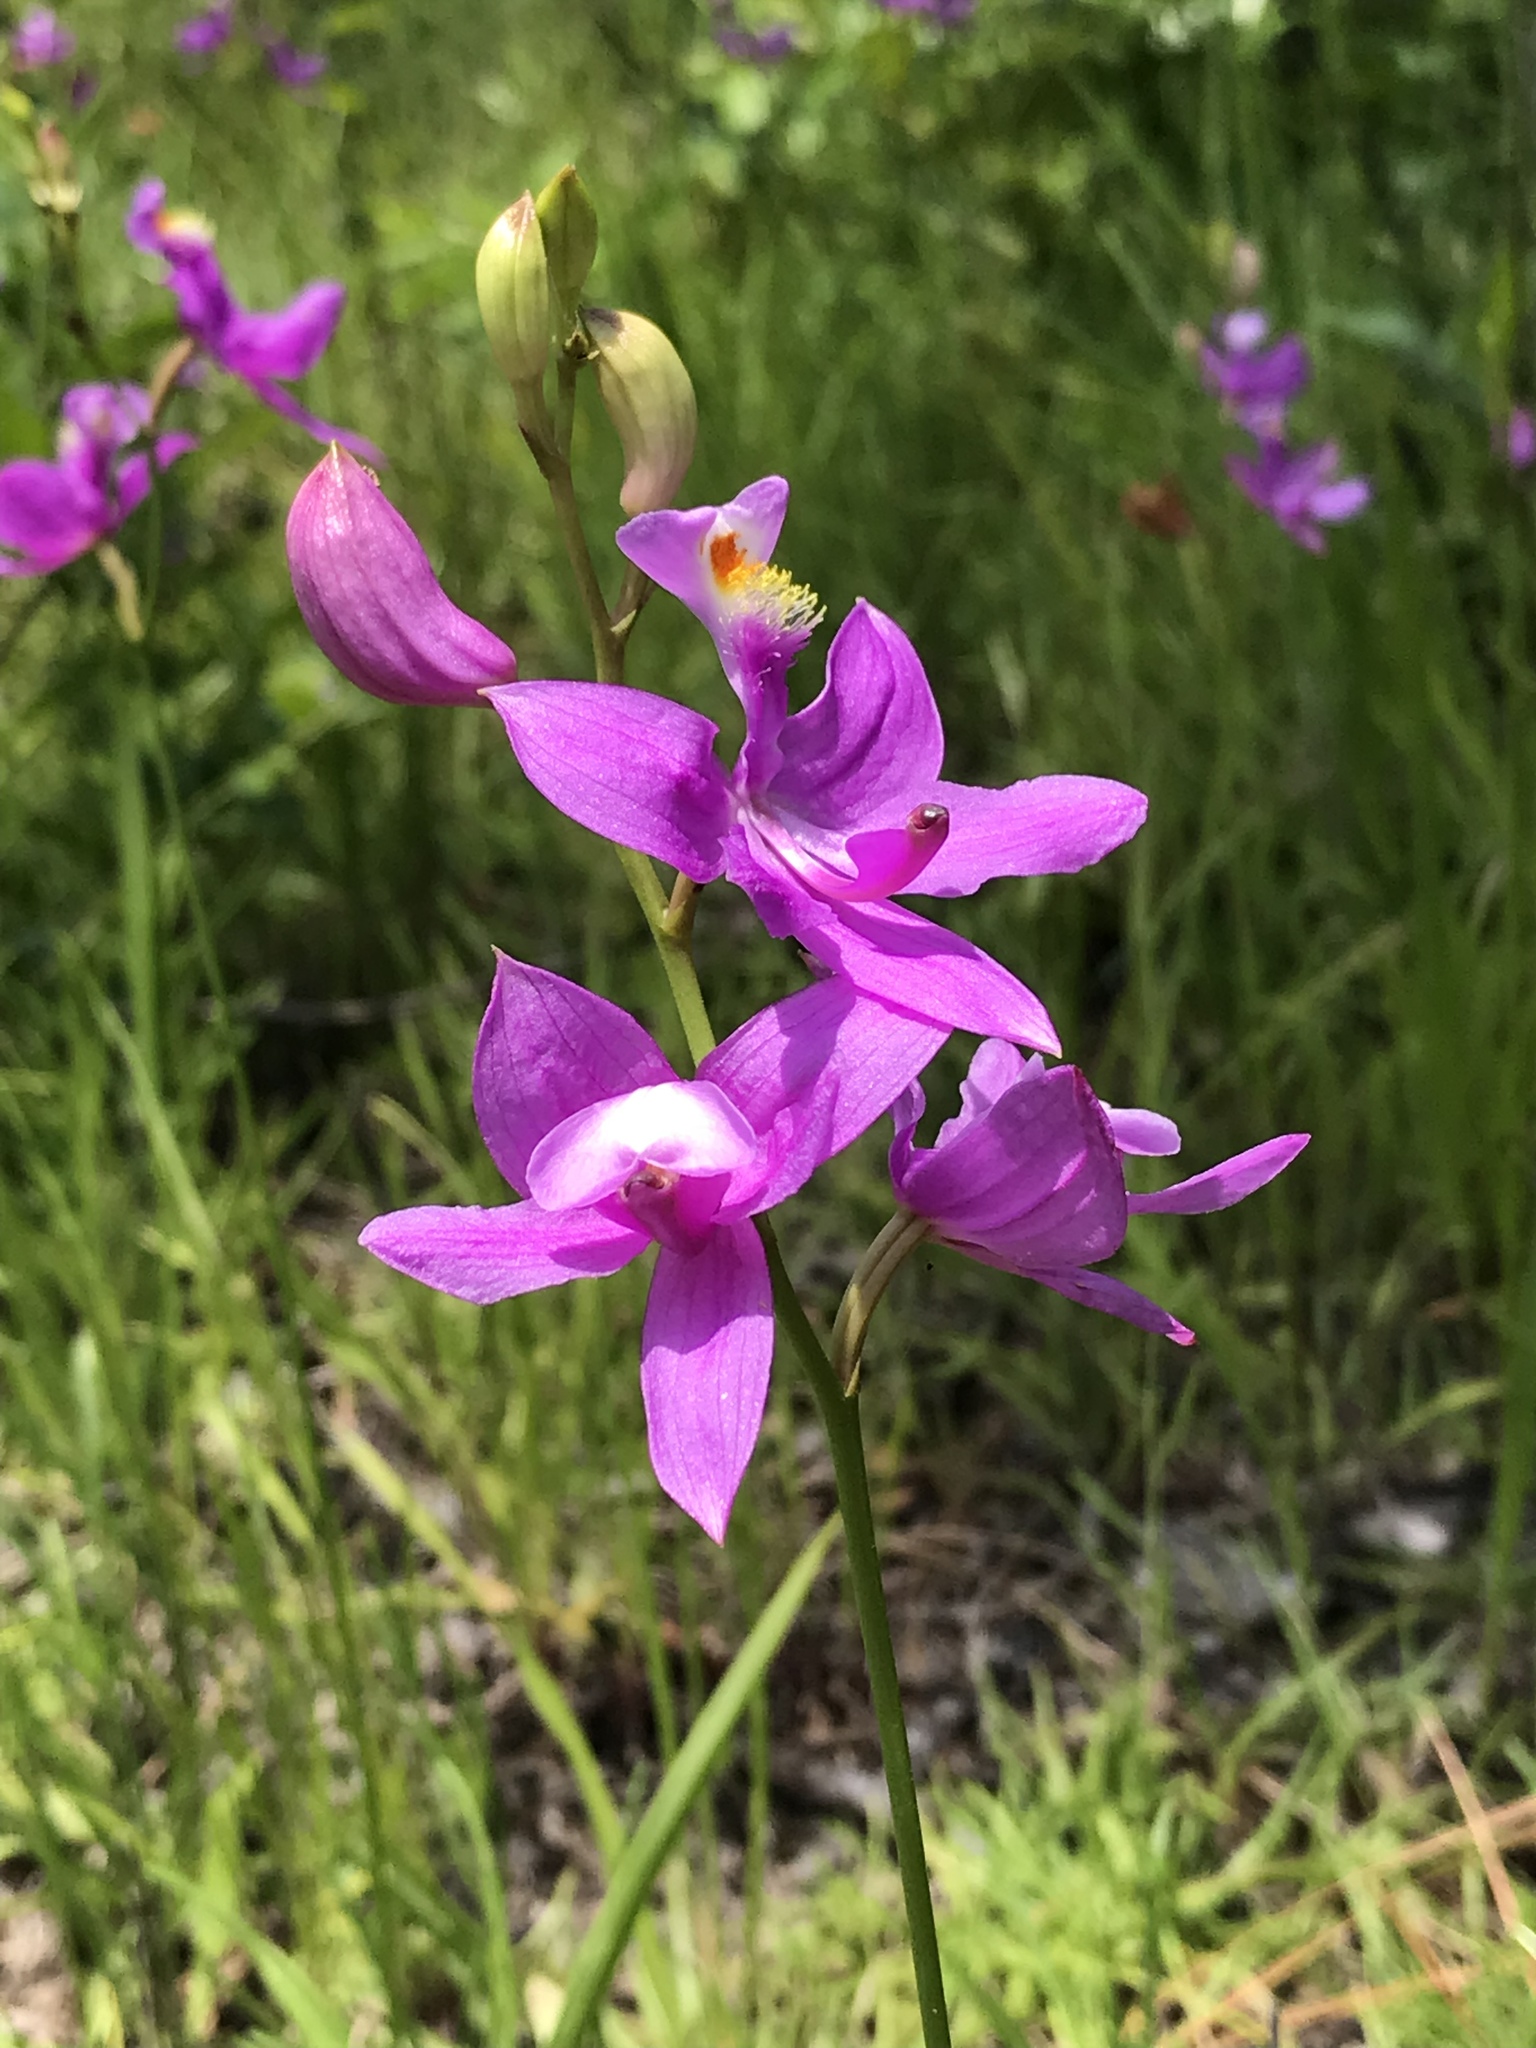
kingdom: Plantae
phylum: Tracheophyta
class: Liliopsida
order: Asparagales
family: Orchidaceae
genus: Calopogon
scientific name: Calopogon tuberosus
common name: Grass-pink
